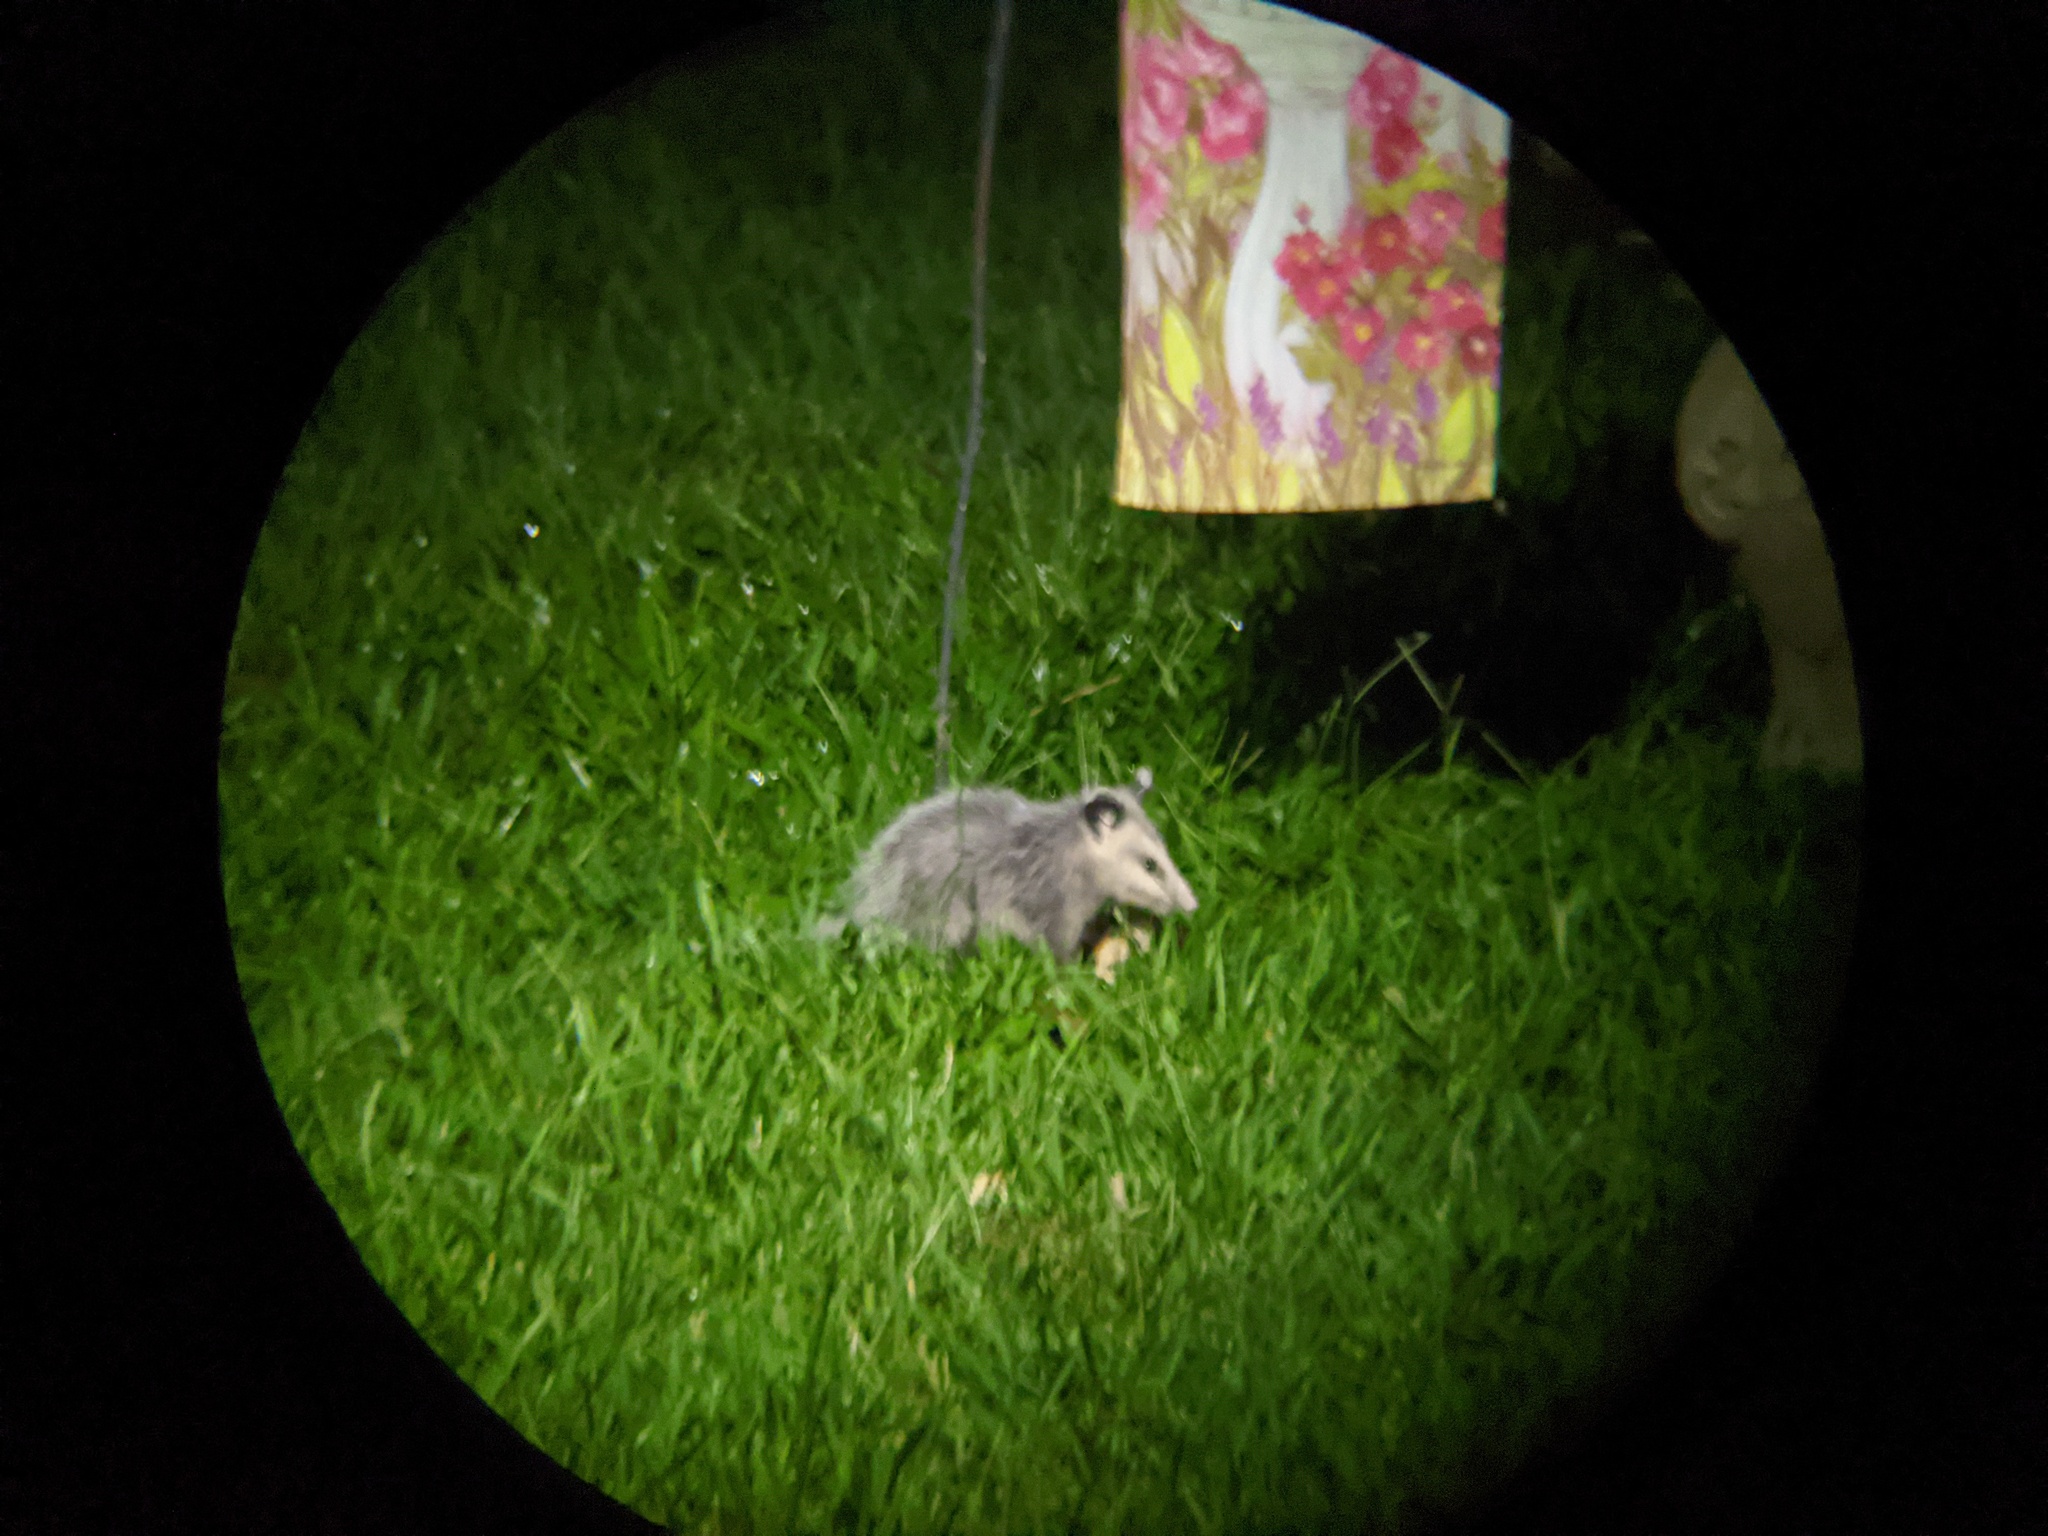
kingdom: Animalia
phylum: Chordata
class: Mammalia
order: Didelphimorphia
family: Didelphidae
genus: Didelphis
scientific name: Didelphis virginiana
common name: Virginia opossum
